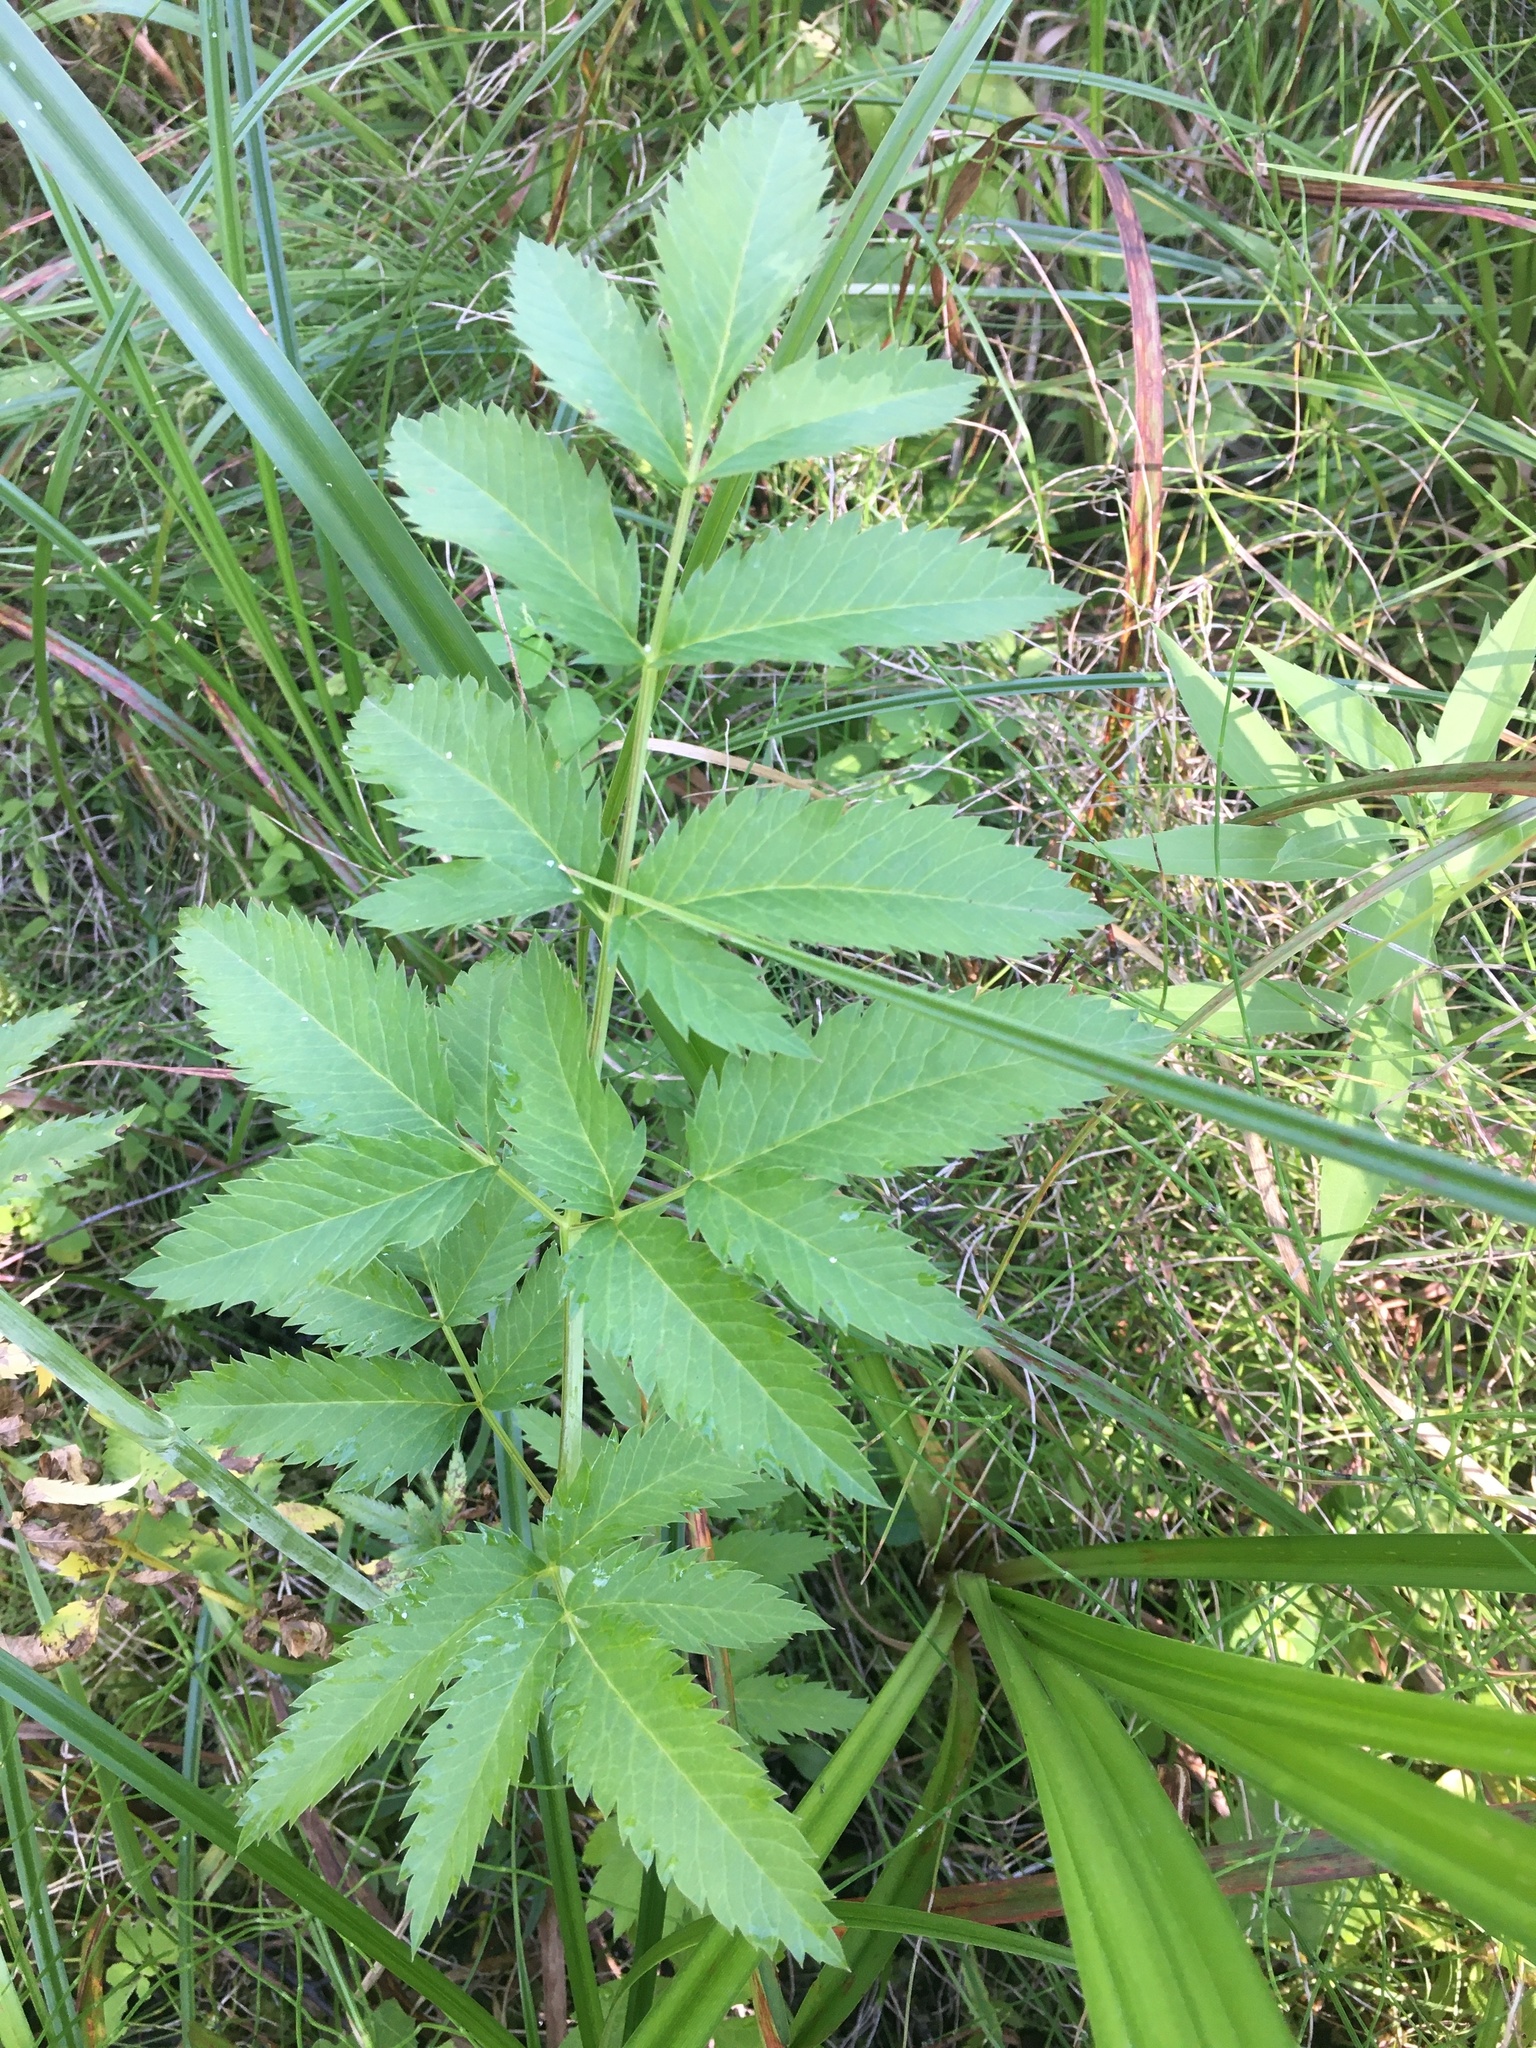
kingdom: Plantae
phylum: Tracheophyta
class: Magnoliopsida
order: Apiales
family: Apiaceae
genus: Cicuta
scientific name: Cicuta maculata
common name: Spotted cowbane
